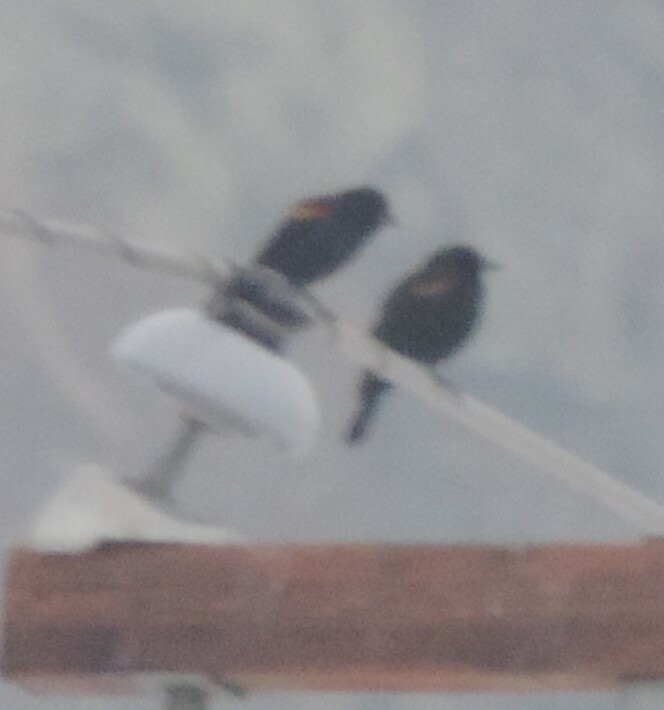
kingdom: Animalia
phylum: Chordata
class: Aves
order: Passeriformes
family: Icteridae
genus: Agelaius
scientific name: Agelaius phoeniceus
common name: Red-winged blackbird
